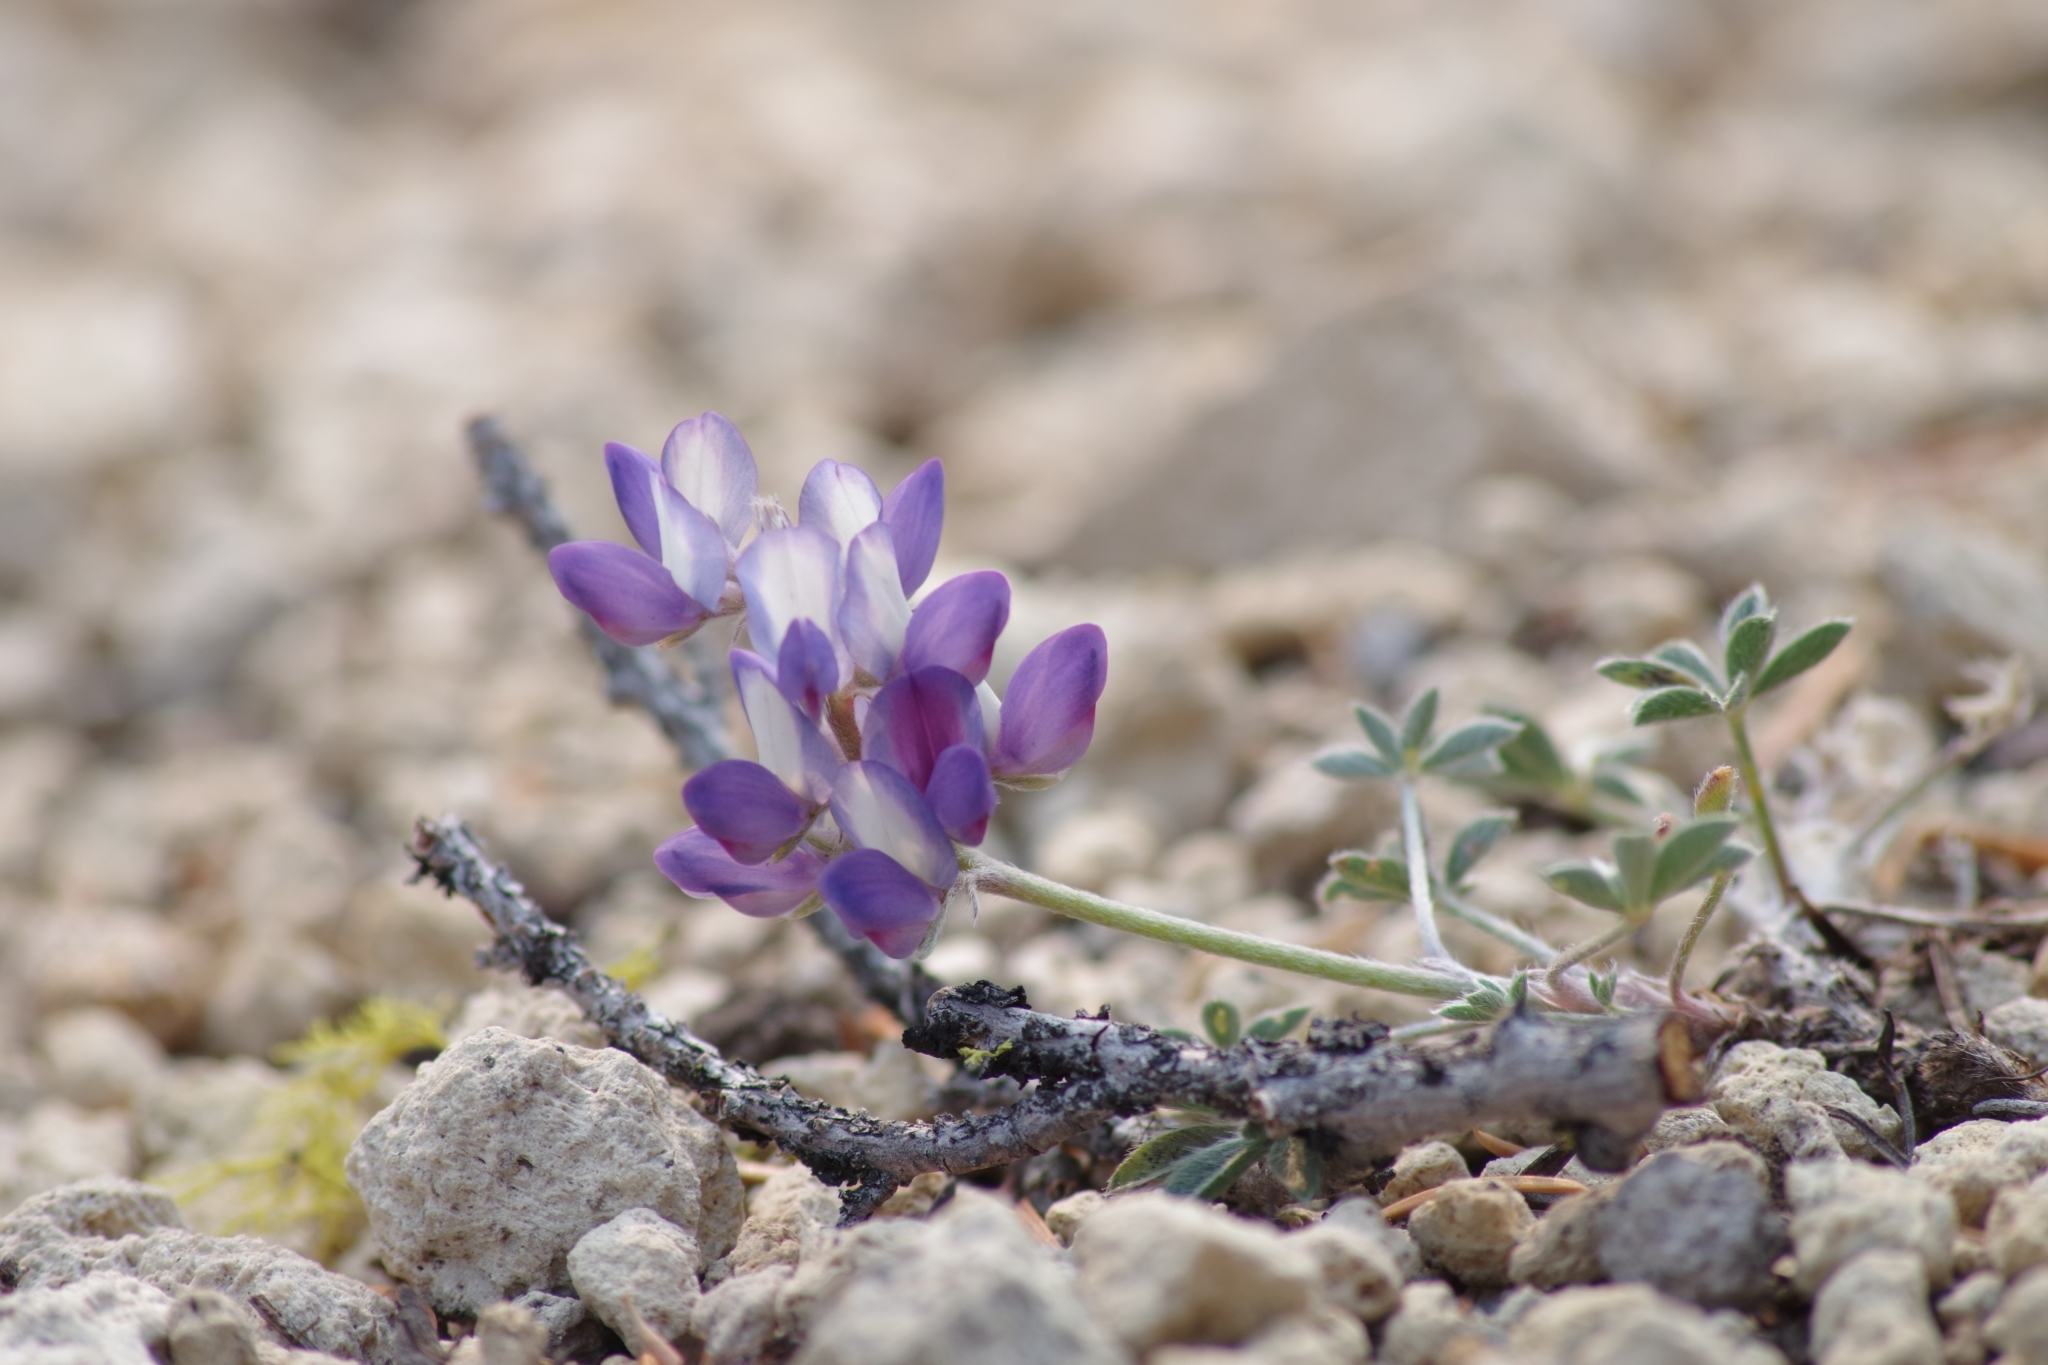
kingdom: Plantae
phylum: Tracheophyta
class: Magnoliopsida
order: Fabales
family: Fabaceae
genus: Lupinus
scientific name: Lupinus lepidus
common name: Prairie lupine
